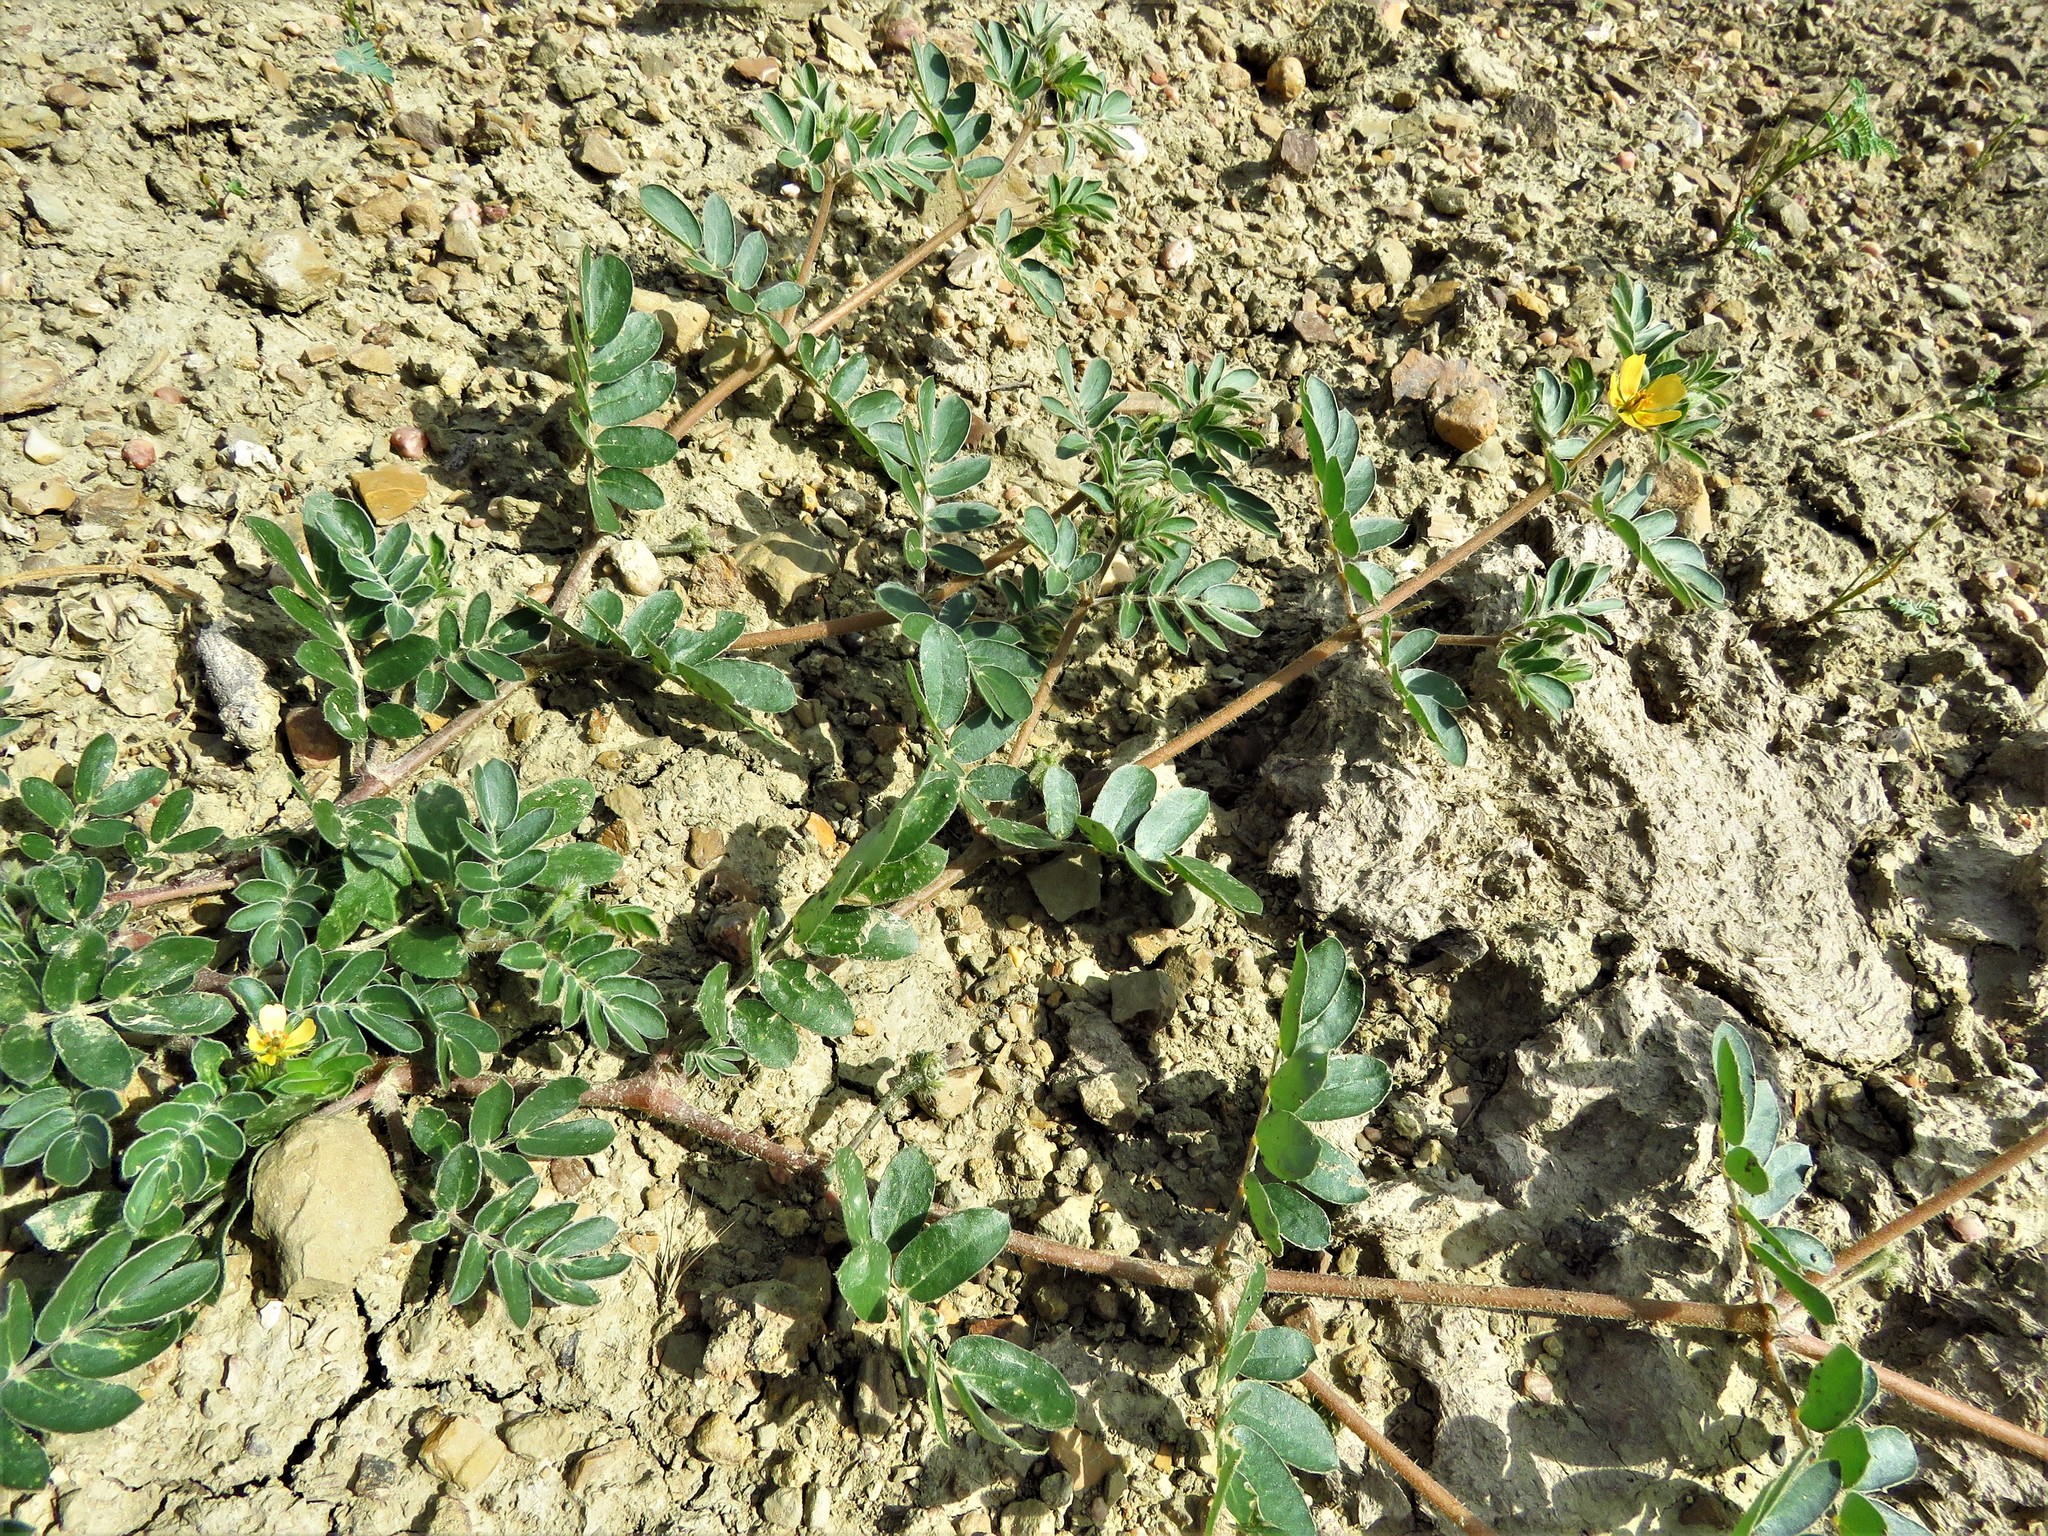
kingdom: Plantae
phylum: Tracheophyta
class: Magnoliopsida
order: Zygophyllales
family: Zygophyllaceae
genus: Kallstroemia
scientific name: Kallstroemia parviflora
